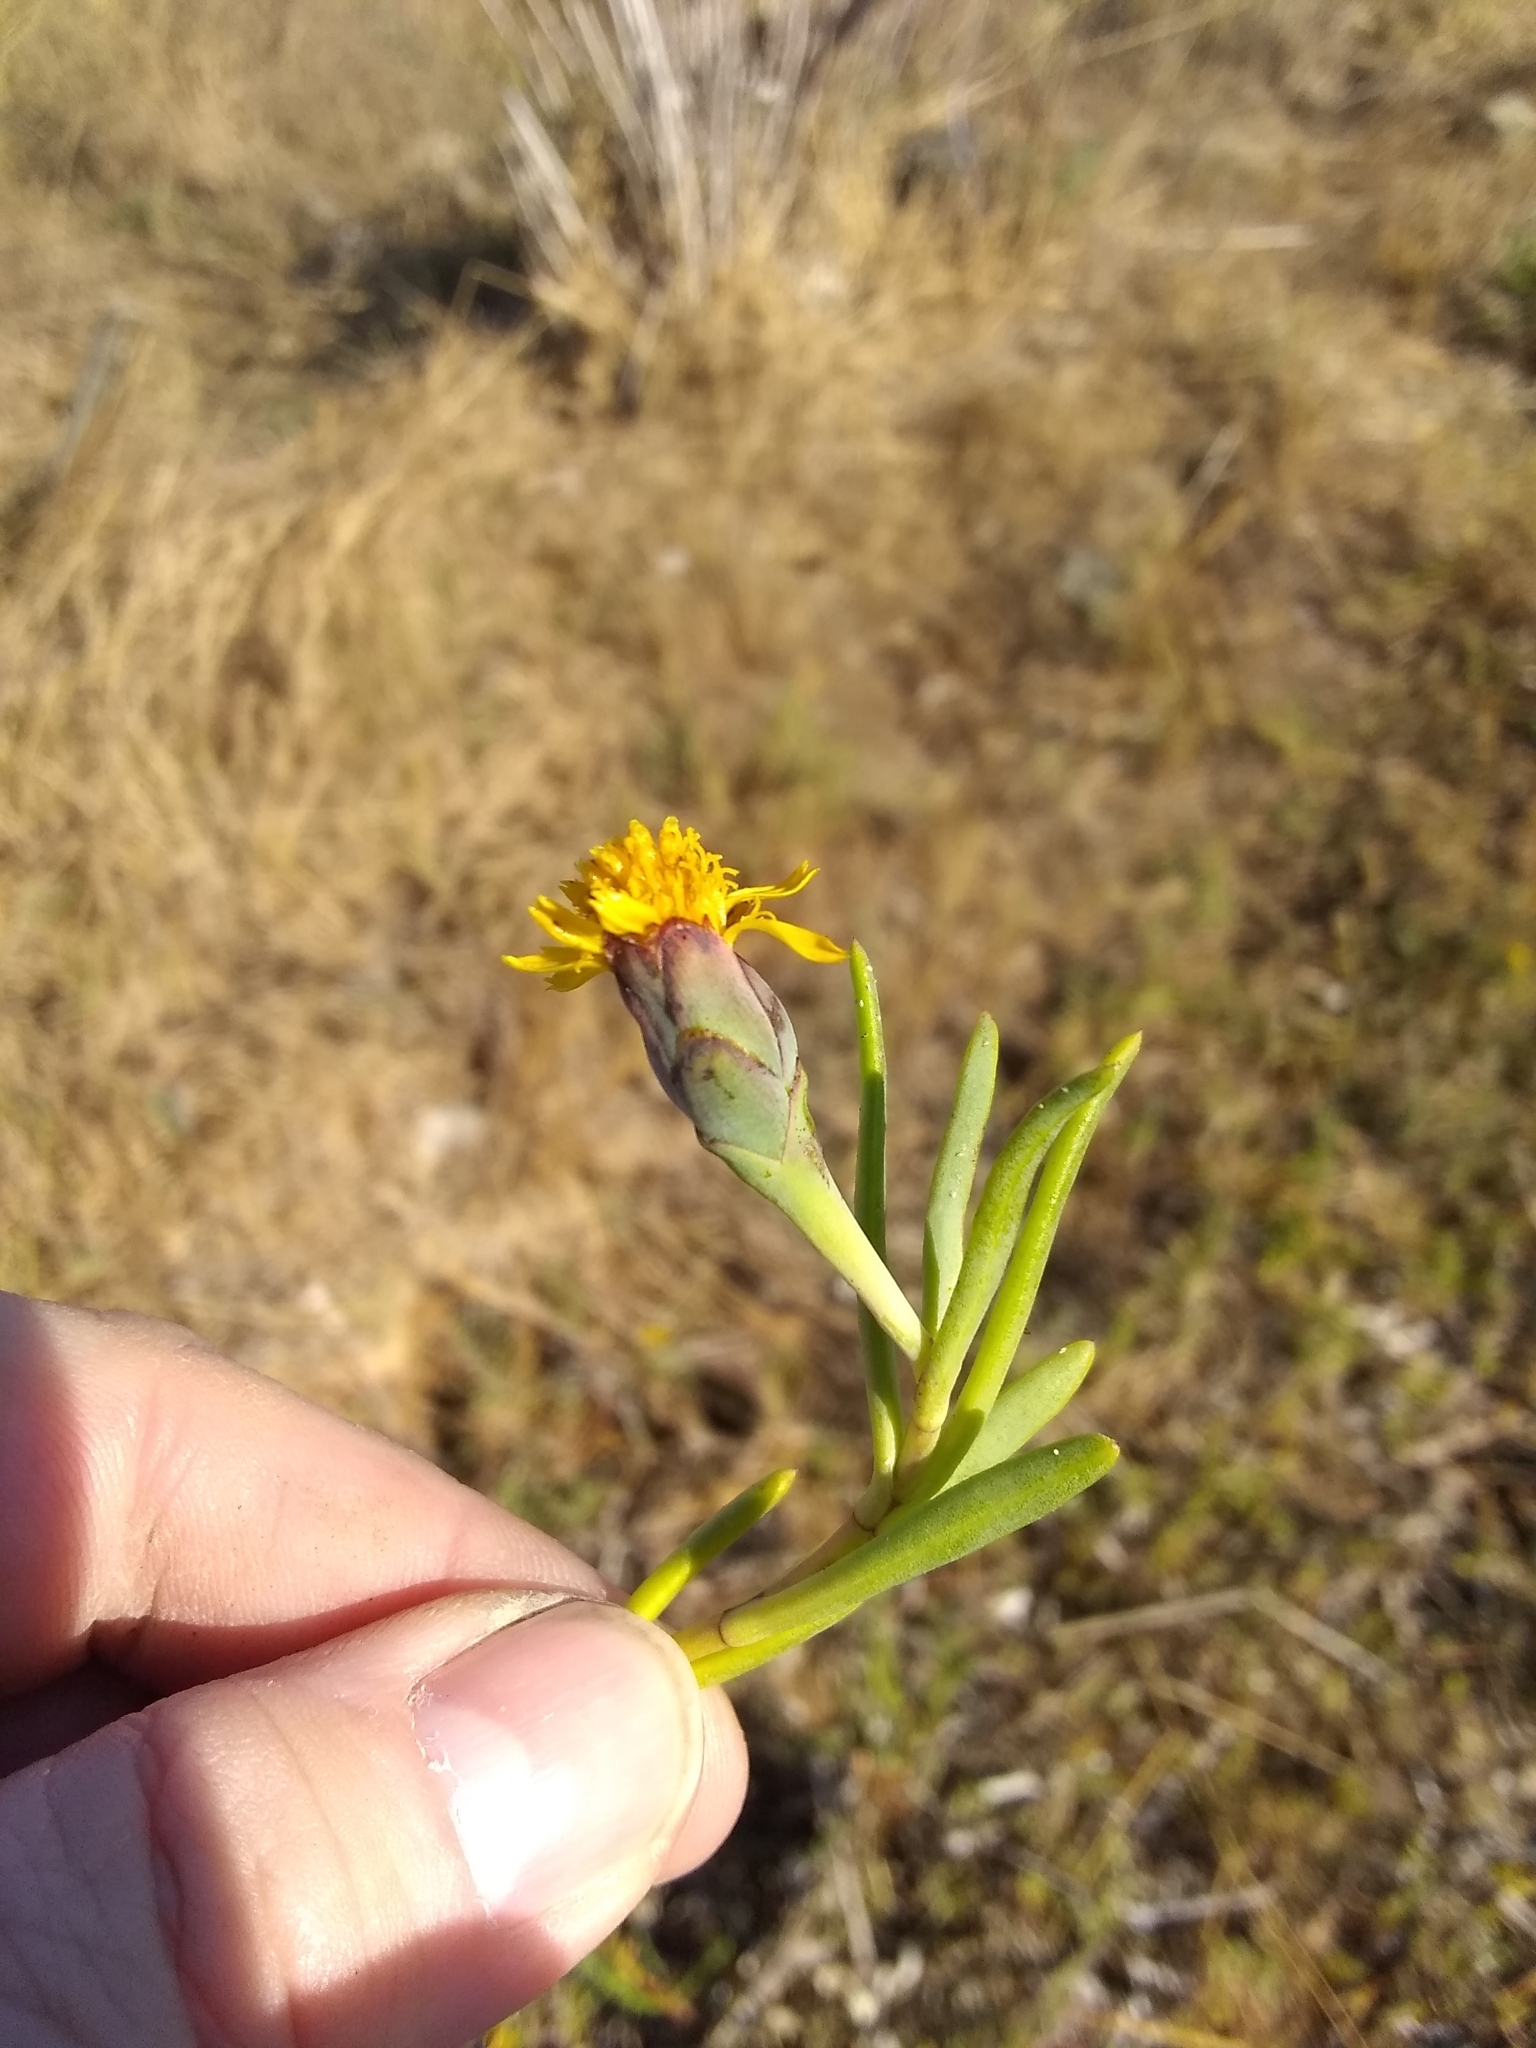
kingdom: Plantae
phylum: Tracheophyta
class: Magnoliopsida
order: Asterales
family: Asteraceae
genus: Jaumea
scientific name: Jaumea carnosa
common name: Fleshy jaumea
